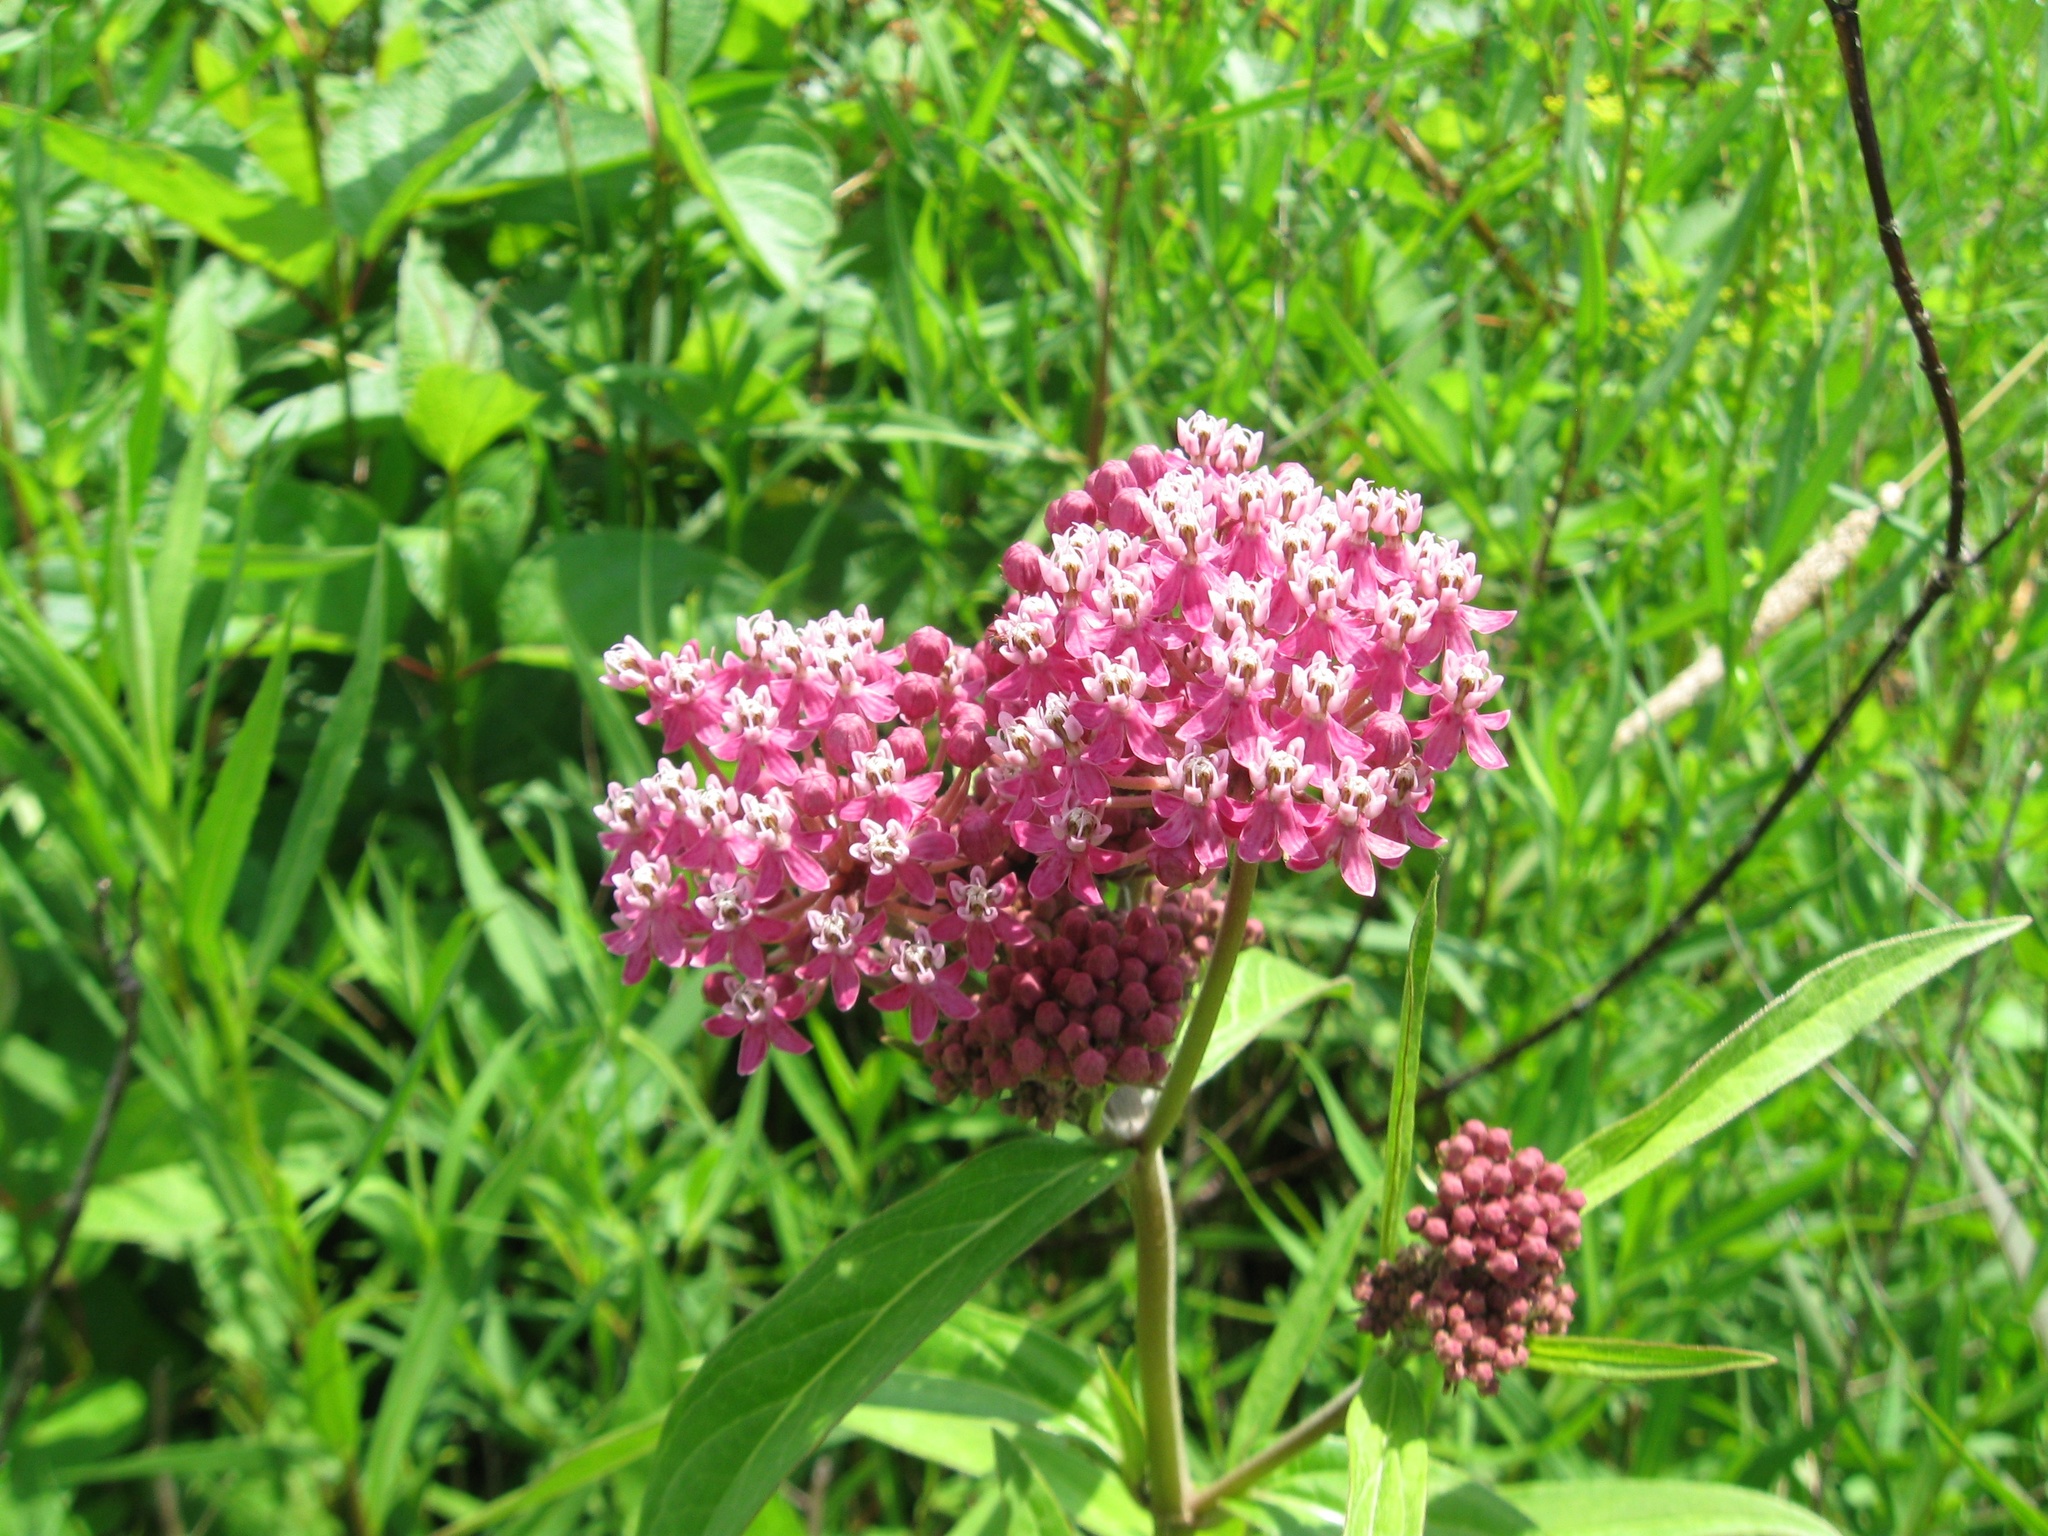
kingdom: Plantae
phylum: Tracheophyta
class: Magnoliopsida
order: Gentianales
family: Apocynaceae
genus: Asclepias
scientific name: Asclepias incarnata
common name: Swamp milkweed
